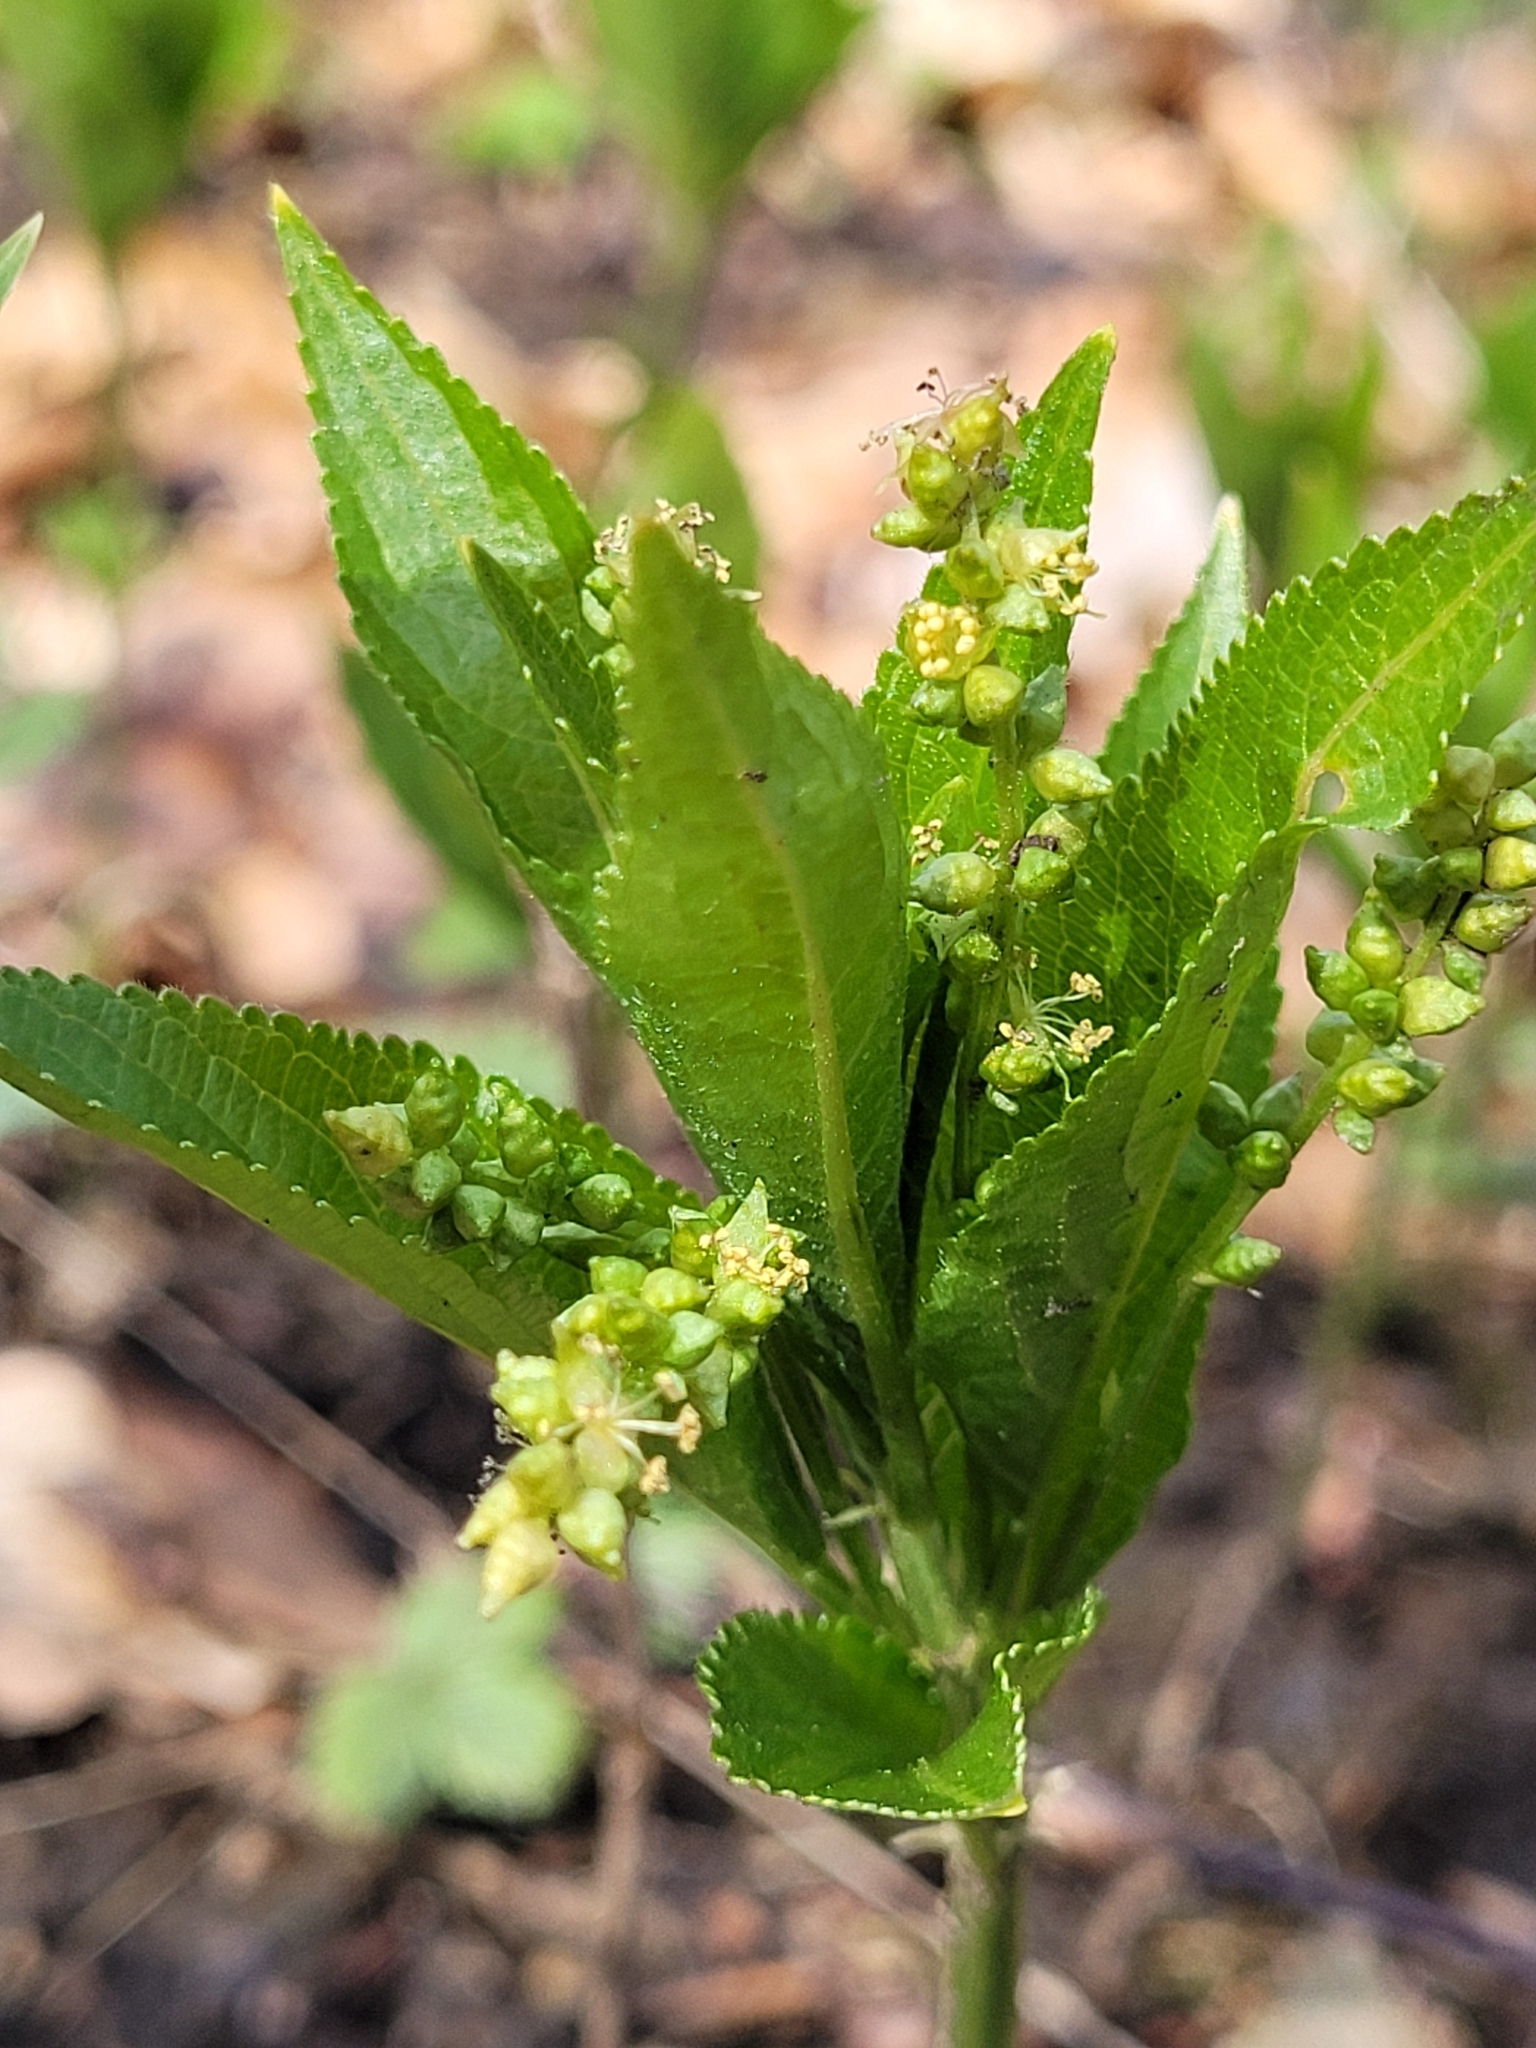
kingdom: Plantae
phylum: Tracheophyta
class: Magnoliopsida
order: Malpighiales
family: Euphorbiaceae
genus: Mercurialis
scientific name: Mercurialis perennis
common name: Dog mercury
